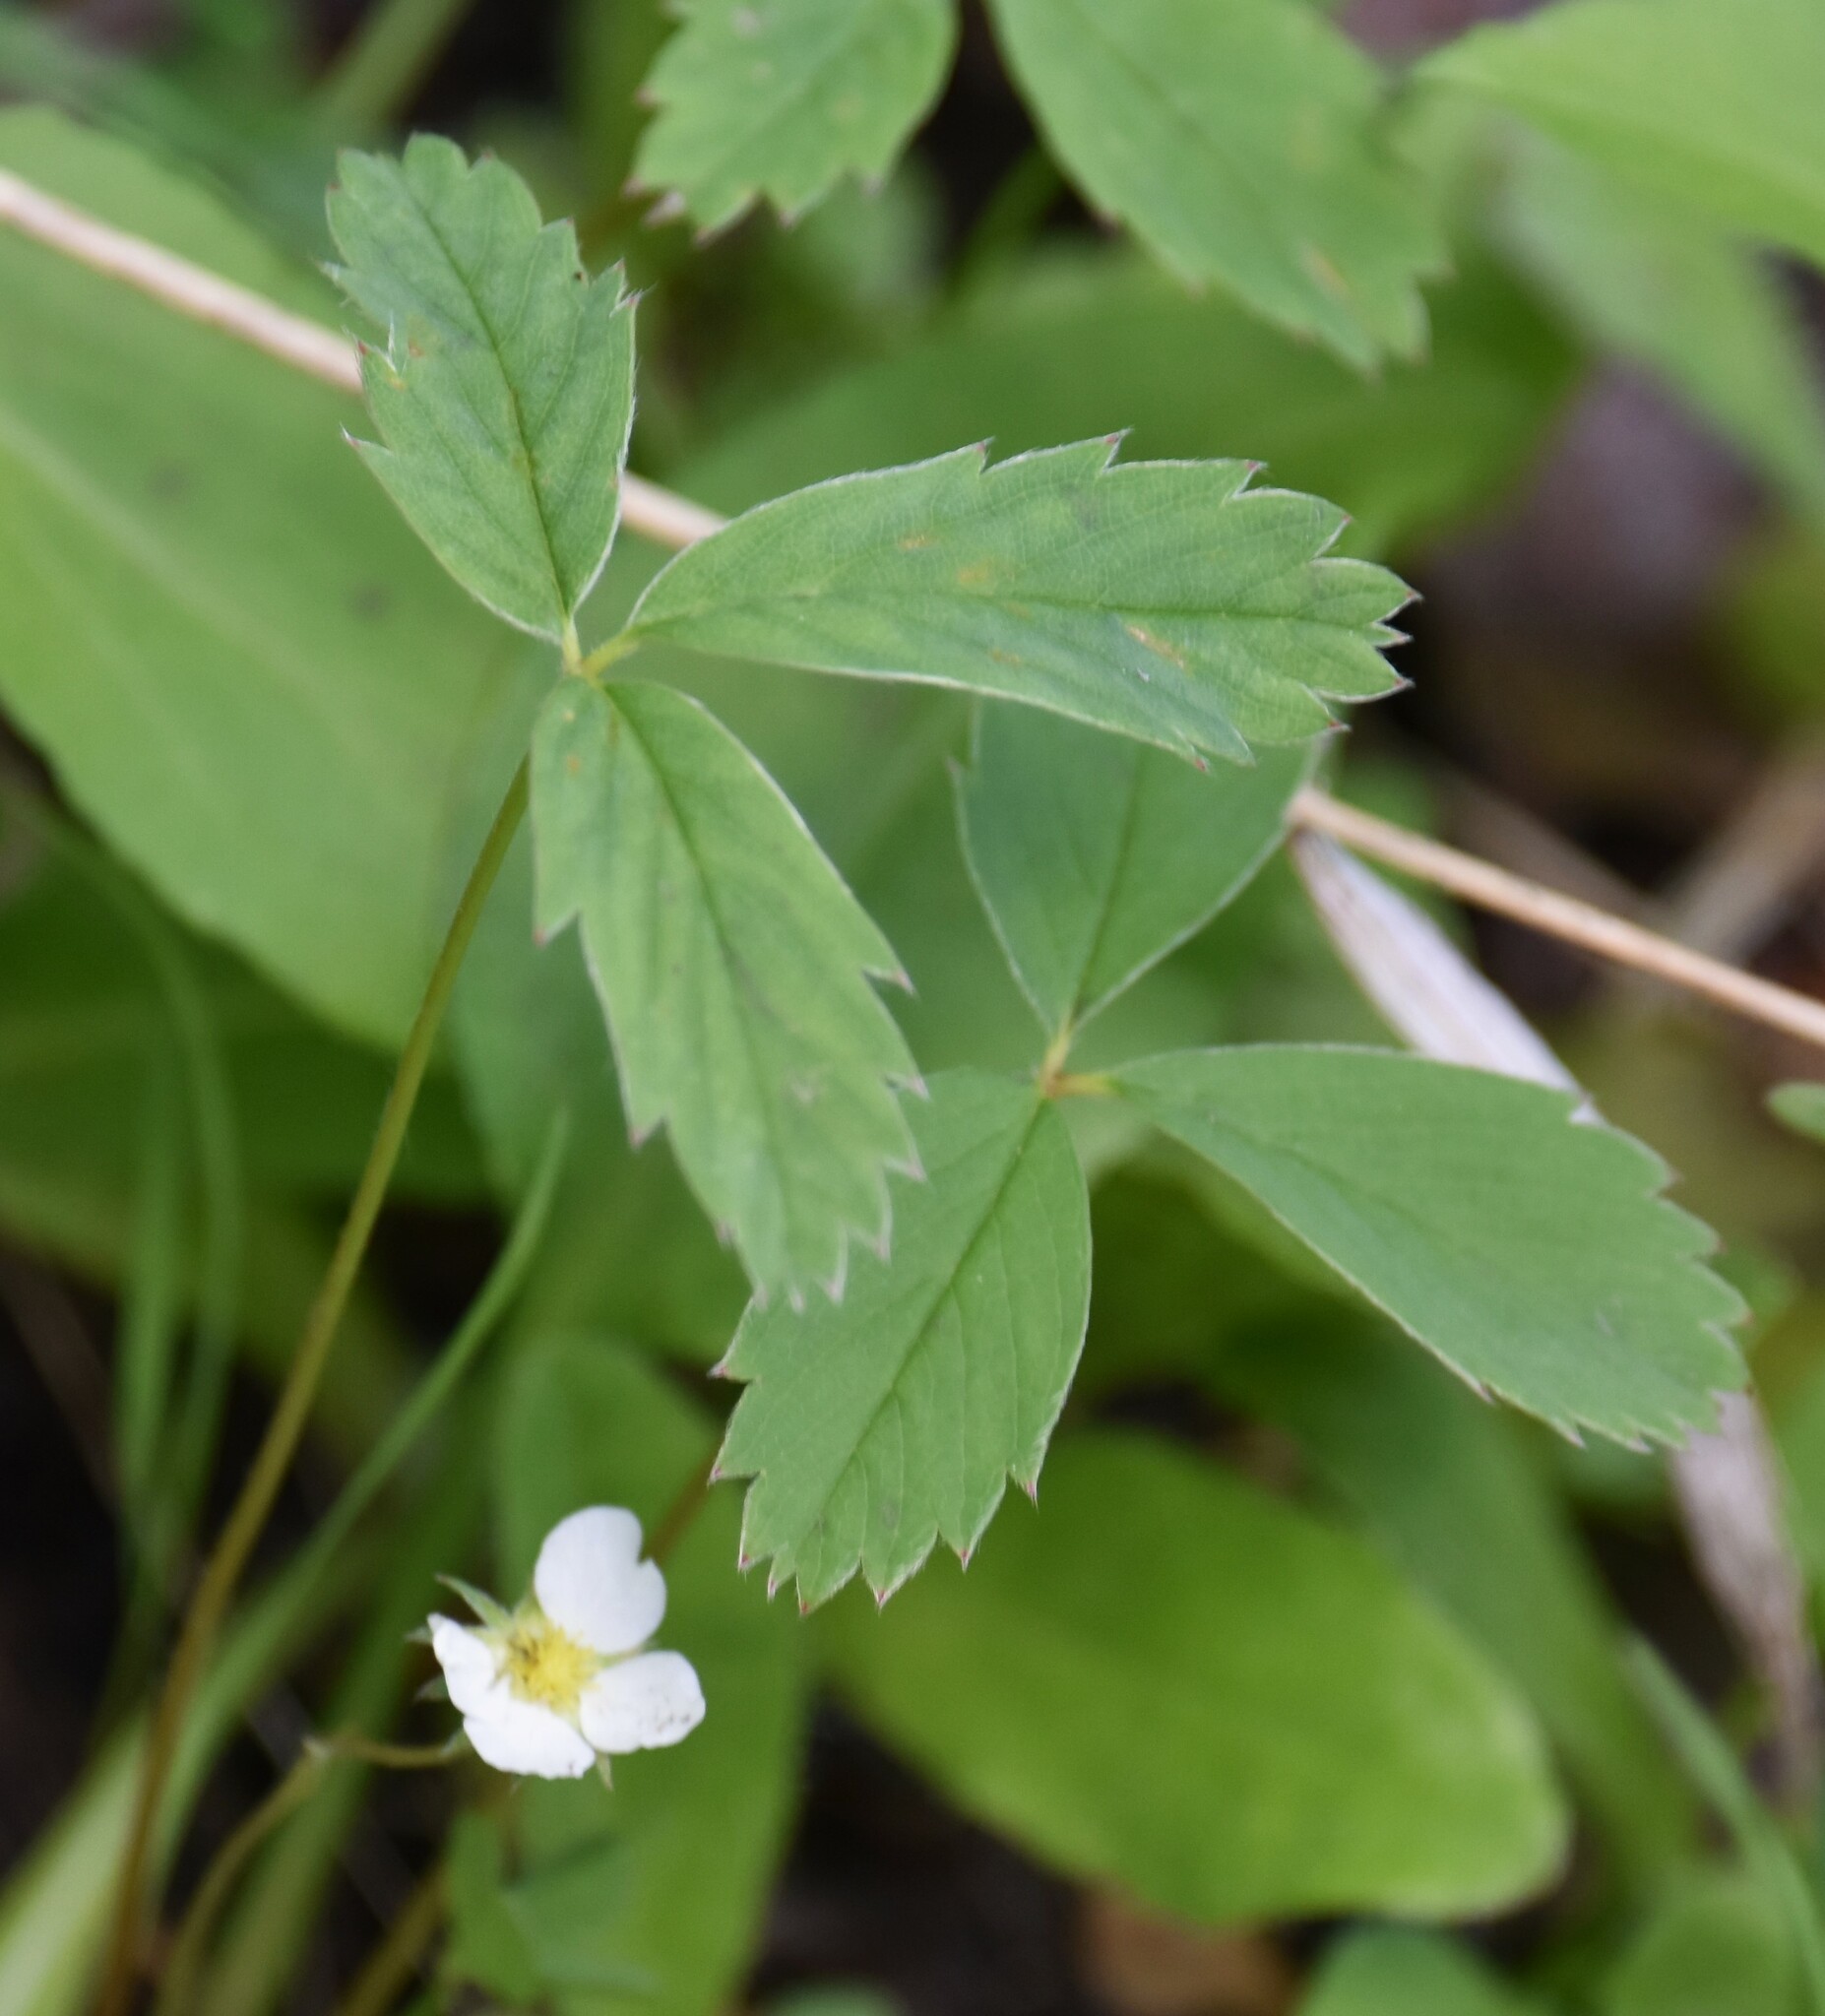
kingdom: Plantae
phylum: Tracheophyta
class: Magnoliopsida
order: Rosales
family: Rosaceae
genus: Fragaria
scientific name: Fragaria virginiana
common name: Thickleaved wild strawberry
